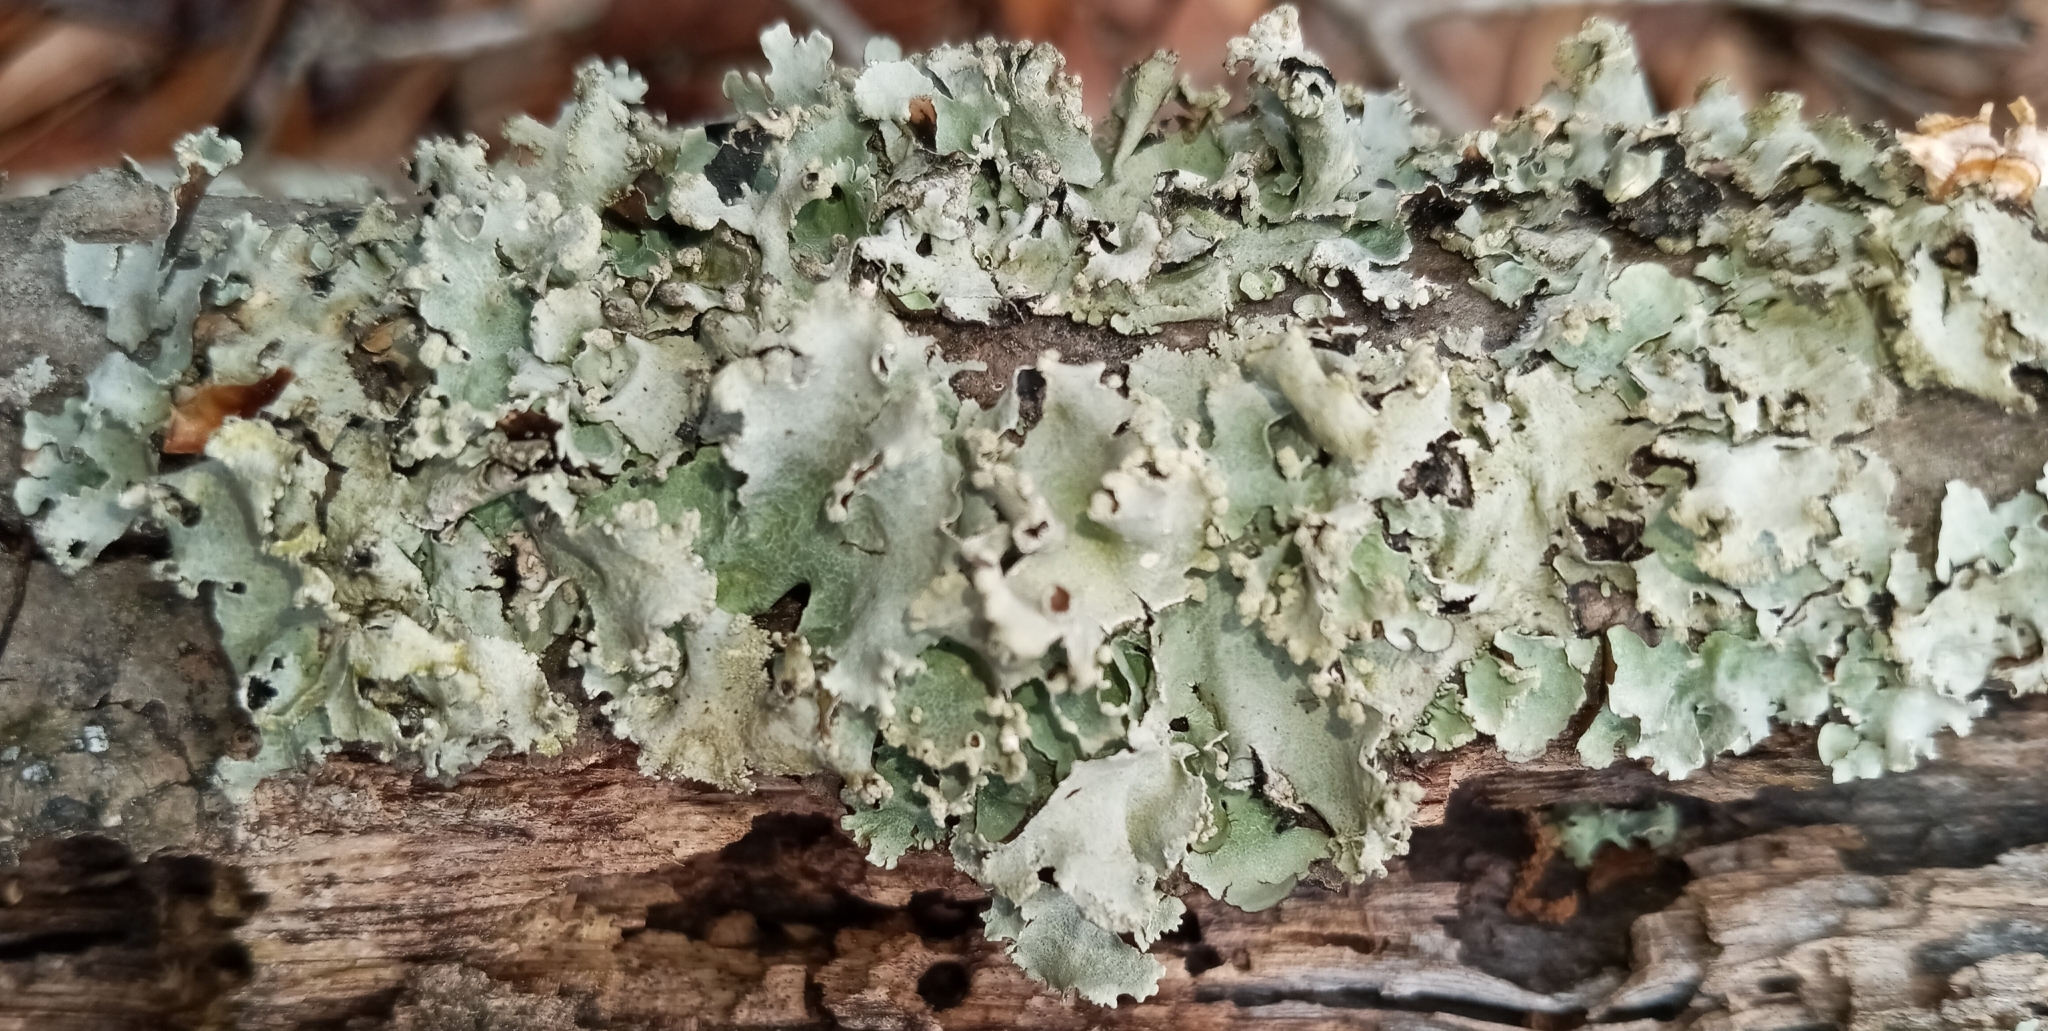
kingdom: Fungi
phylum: Ascomycota
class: Lecanoromycetes
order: Lecanorales
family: Parmeliaceae
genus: Parmotrema
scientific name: Parmotrema simulans
